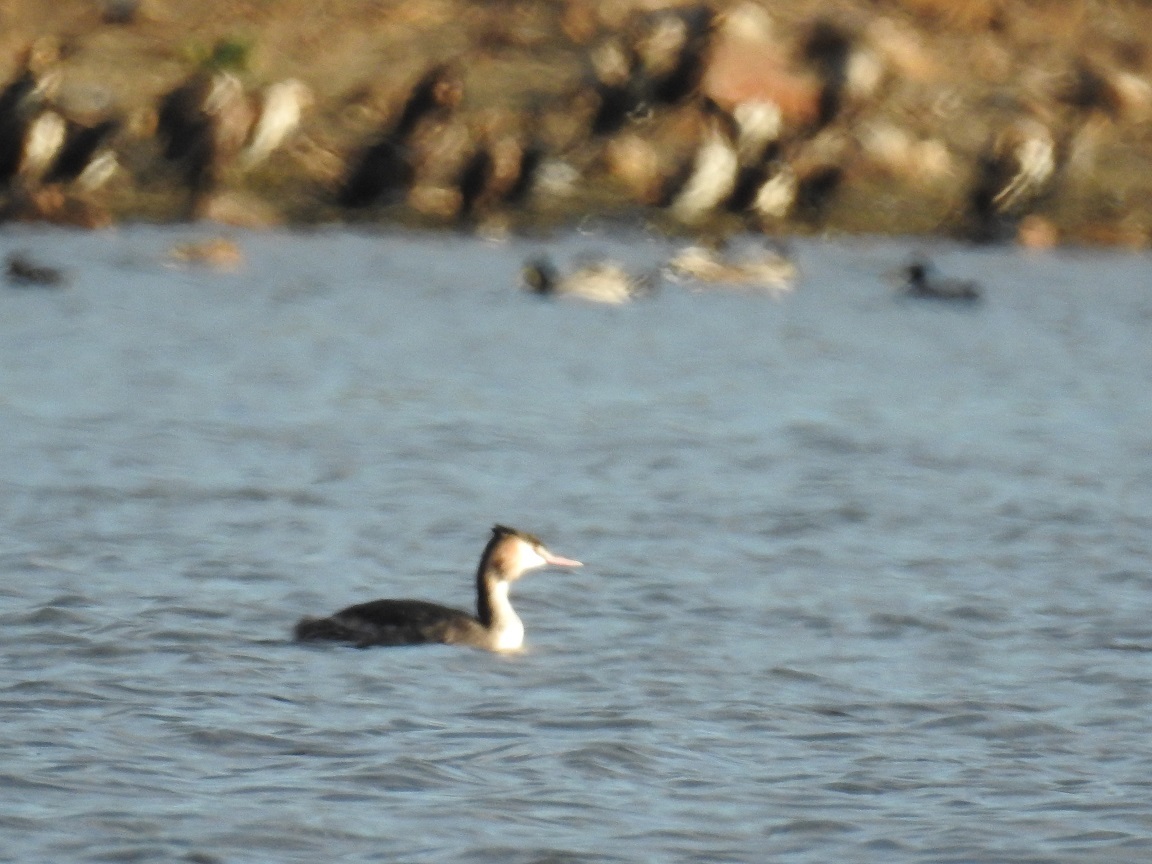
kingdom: Animalia
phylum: Chordata
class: Aves
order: Podicipediformes
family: Podicipedidae
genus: Podiceps
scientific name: Podiceps cristatus
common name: Great crested grebe
